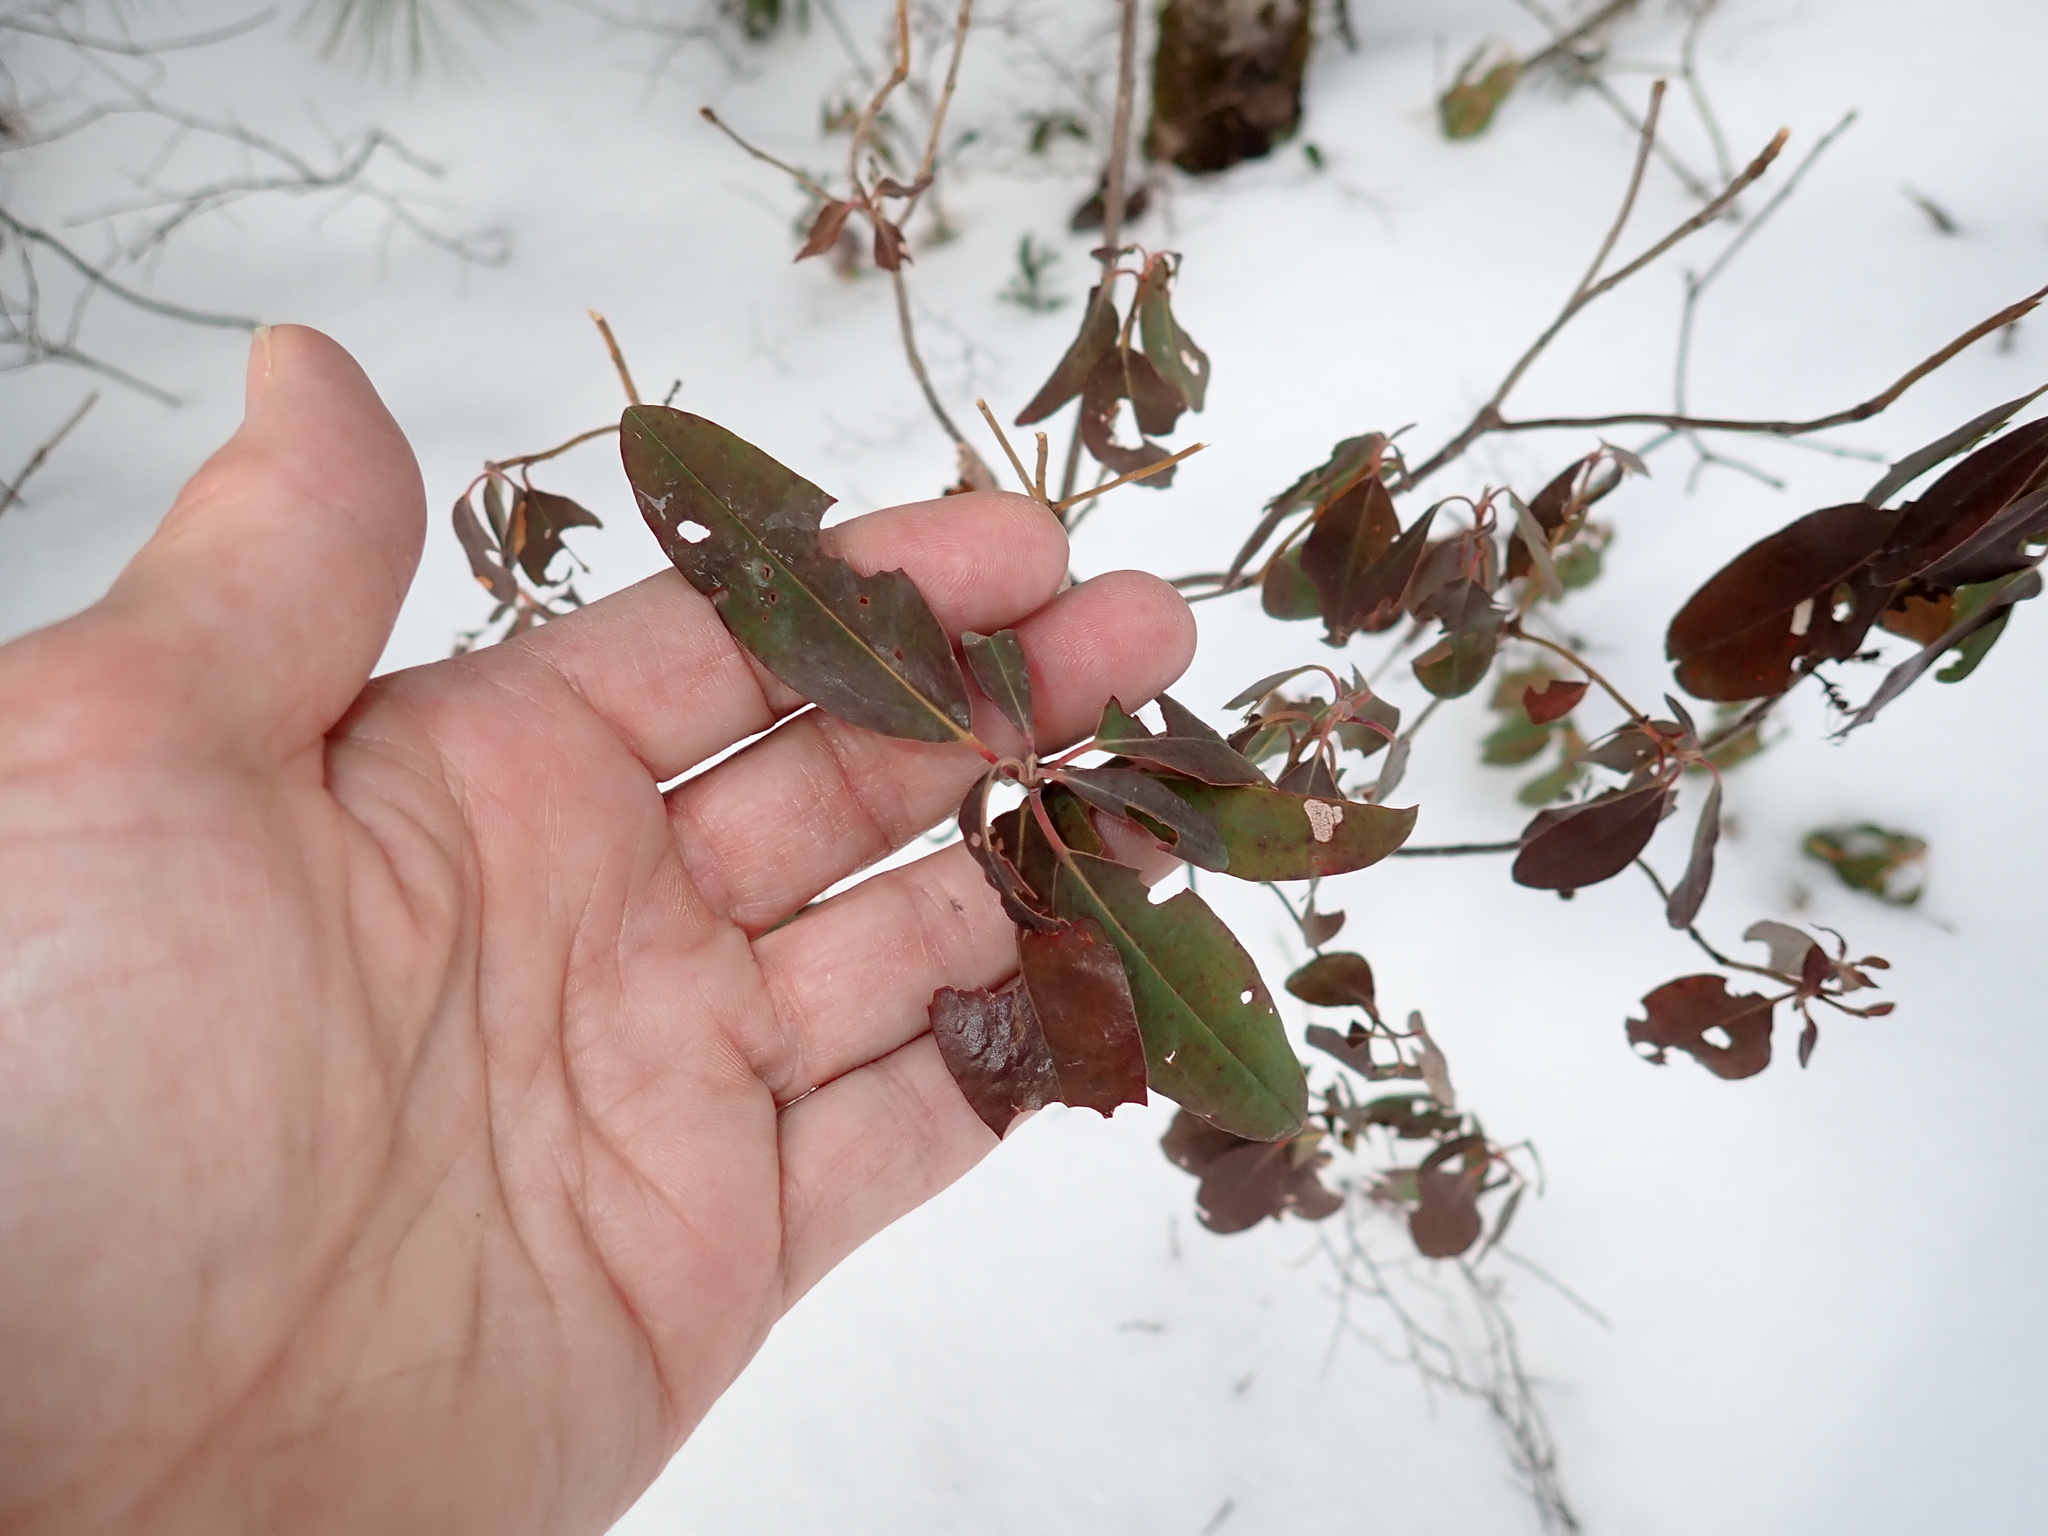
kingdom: Plantae
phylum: Tracheophyta
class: Magnoliopsida
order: Ericales
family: Ericaceae
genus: Kalmia
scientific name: Kalmia angustifolia
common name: Sheep-laurel
